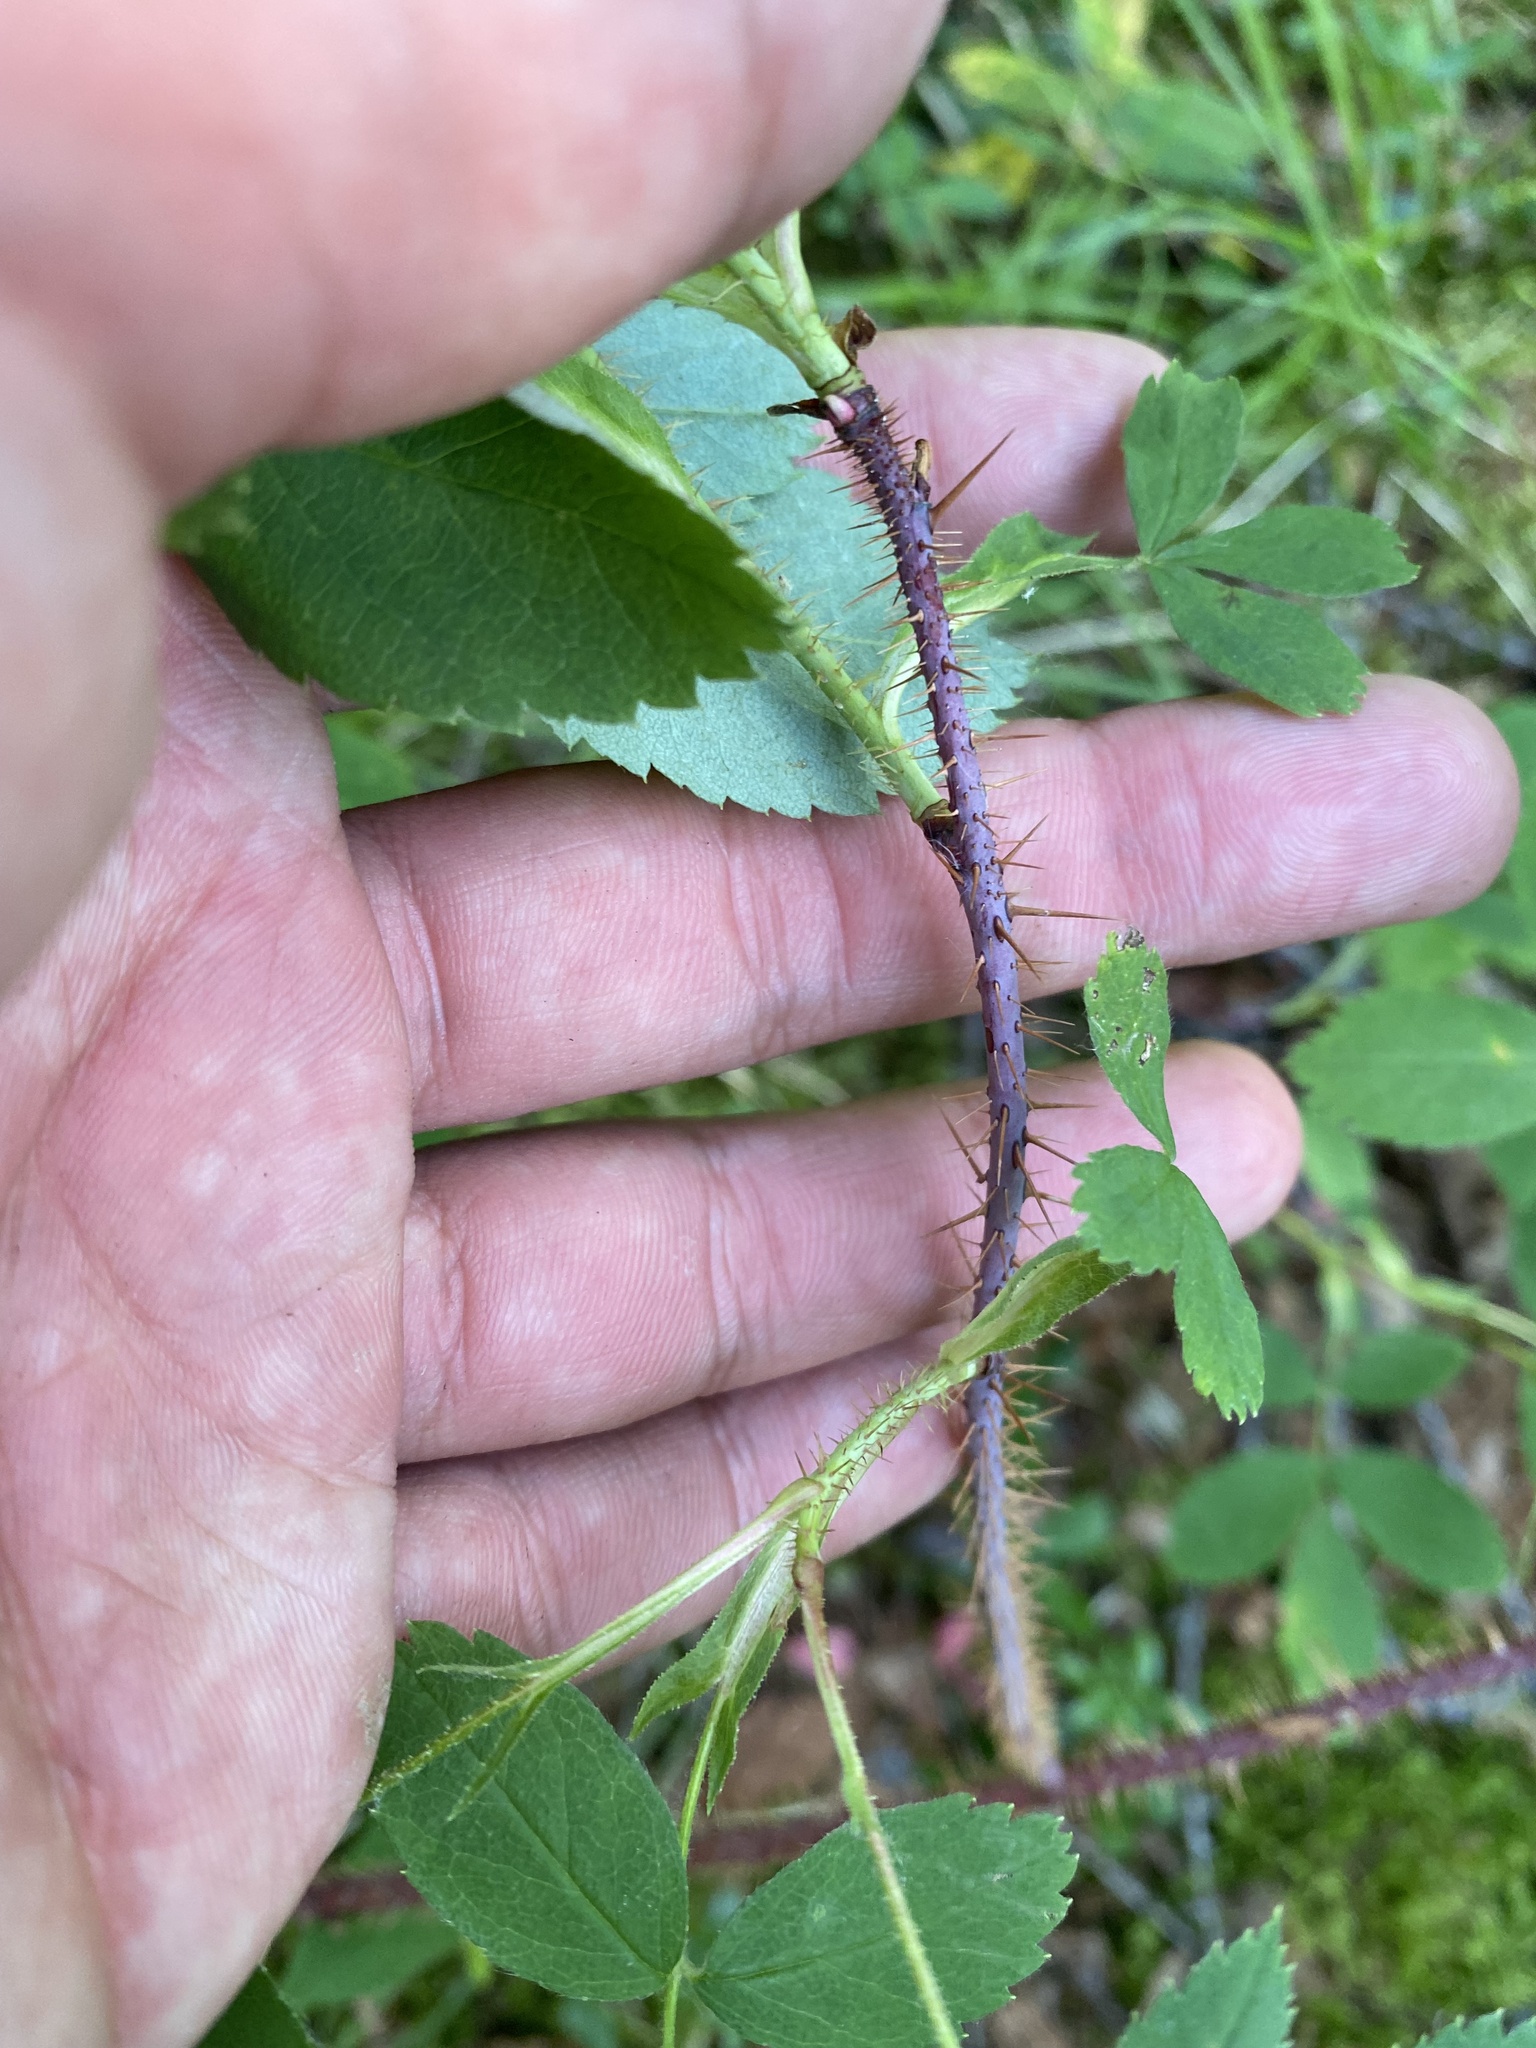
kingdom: Plantae
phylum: Tracheophyta
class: Magnoliopsida
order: Rosales
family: Rosaceae
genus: Rosa
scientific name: Rosa acicularis
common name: Prickly rose
